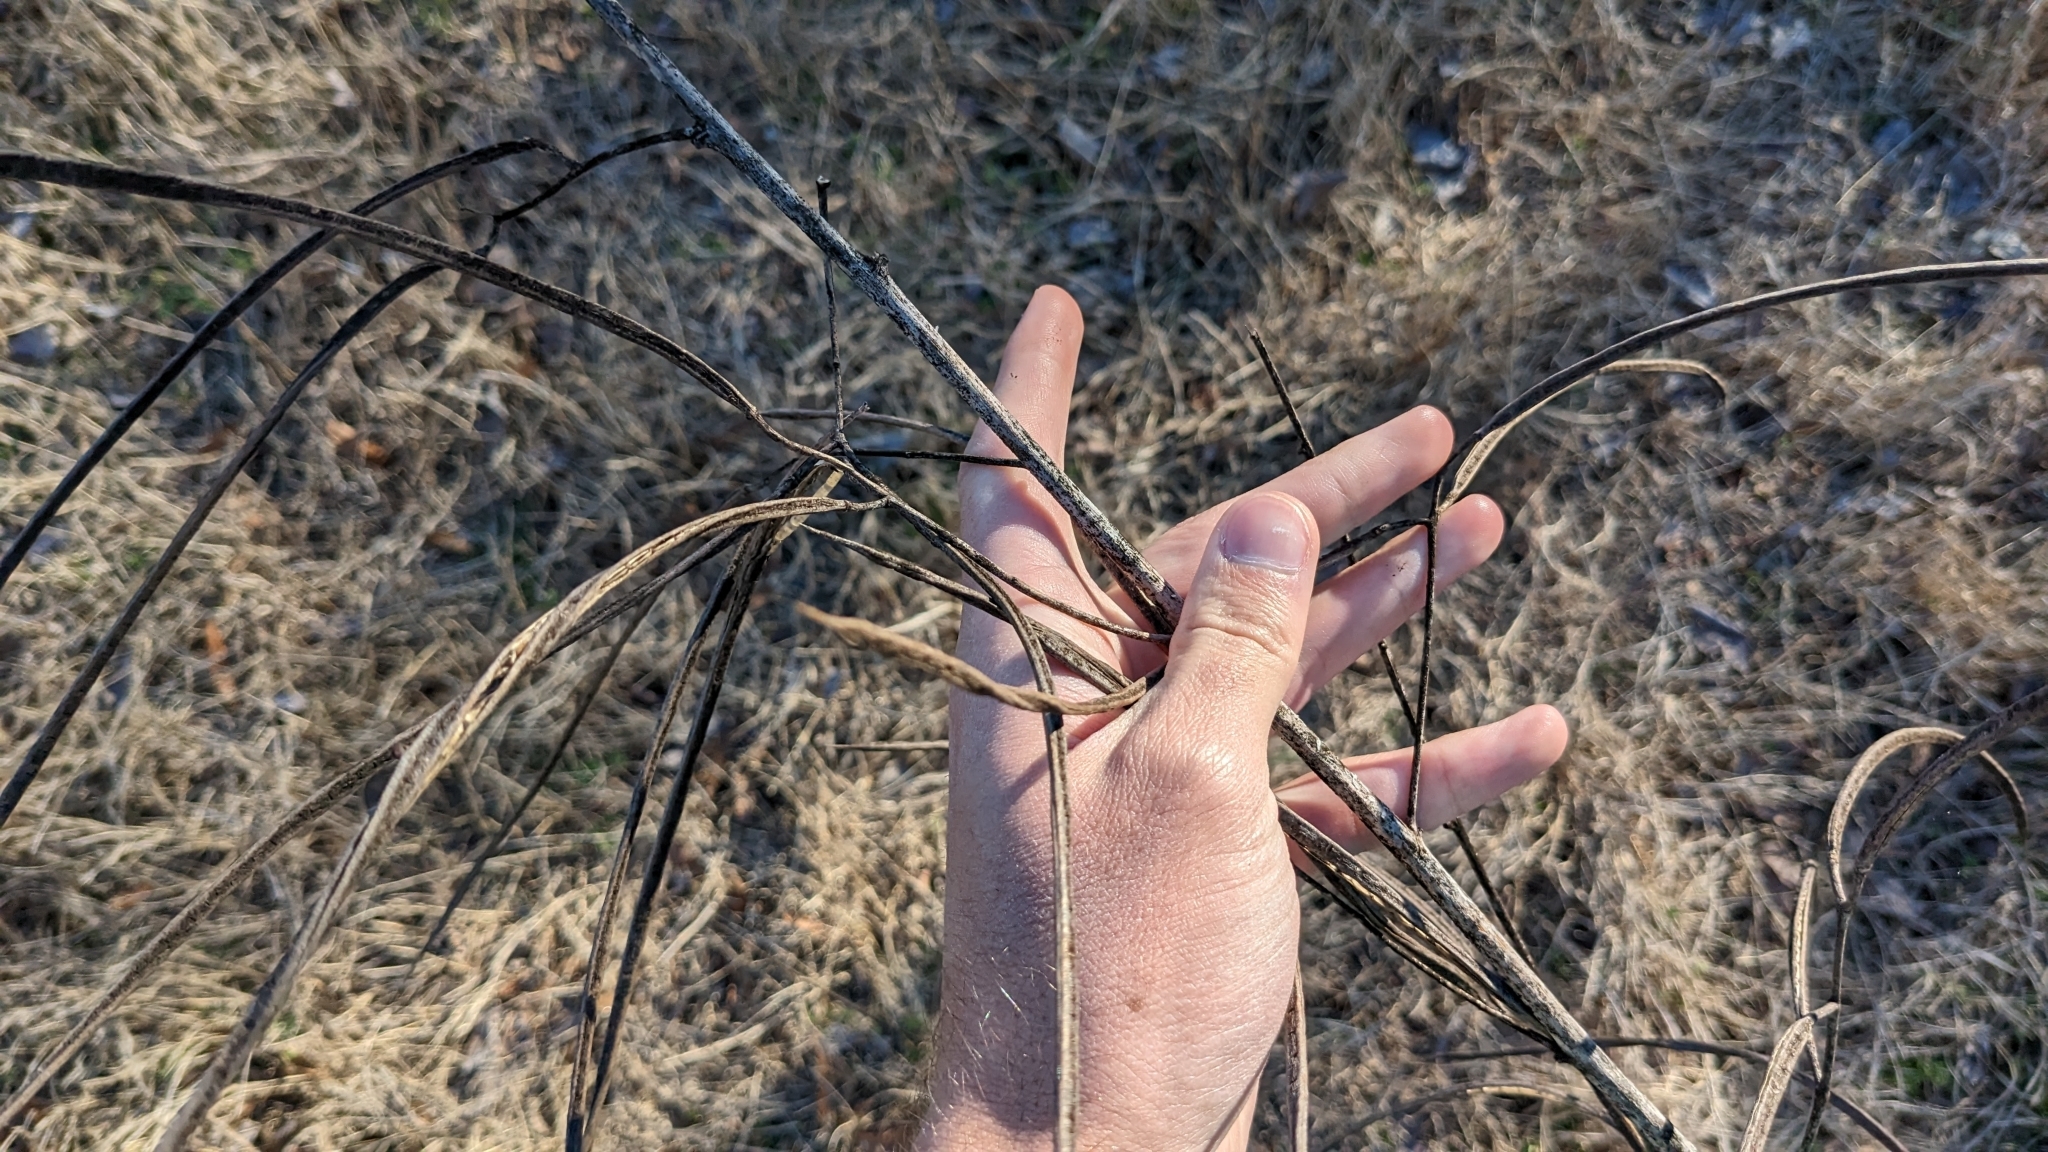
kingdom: Plantae
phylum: Tracheophyta
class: Magnoliopsida
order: Fabales
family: Fabaceae
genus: Sesbania
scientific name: Sesbania herbacea
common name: Bigpod sesbania
